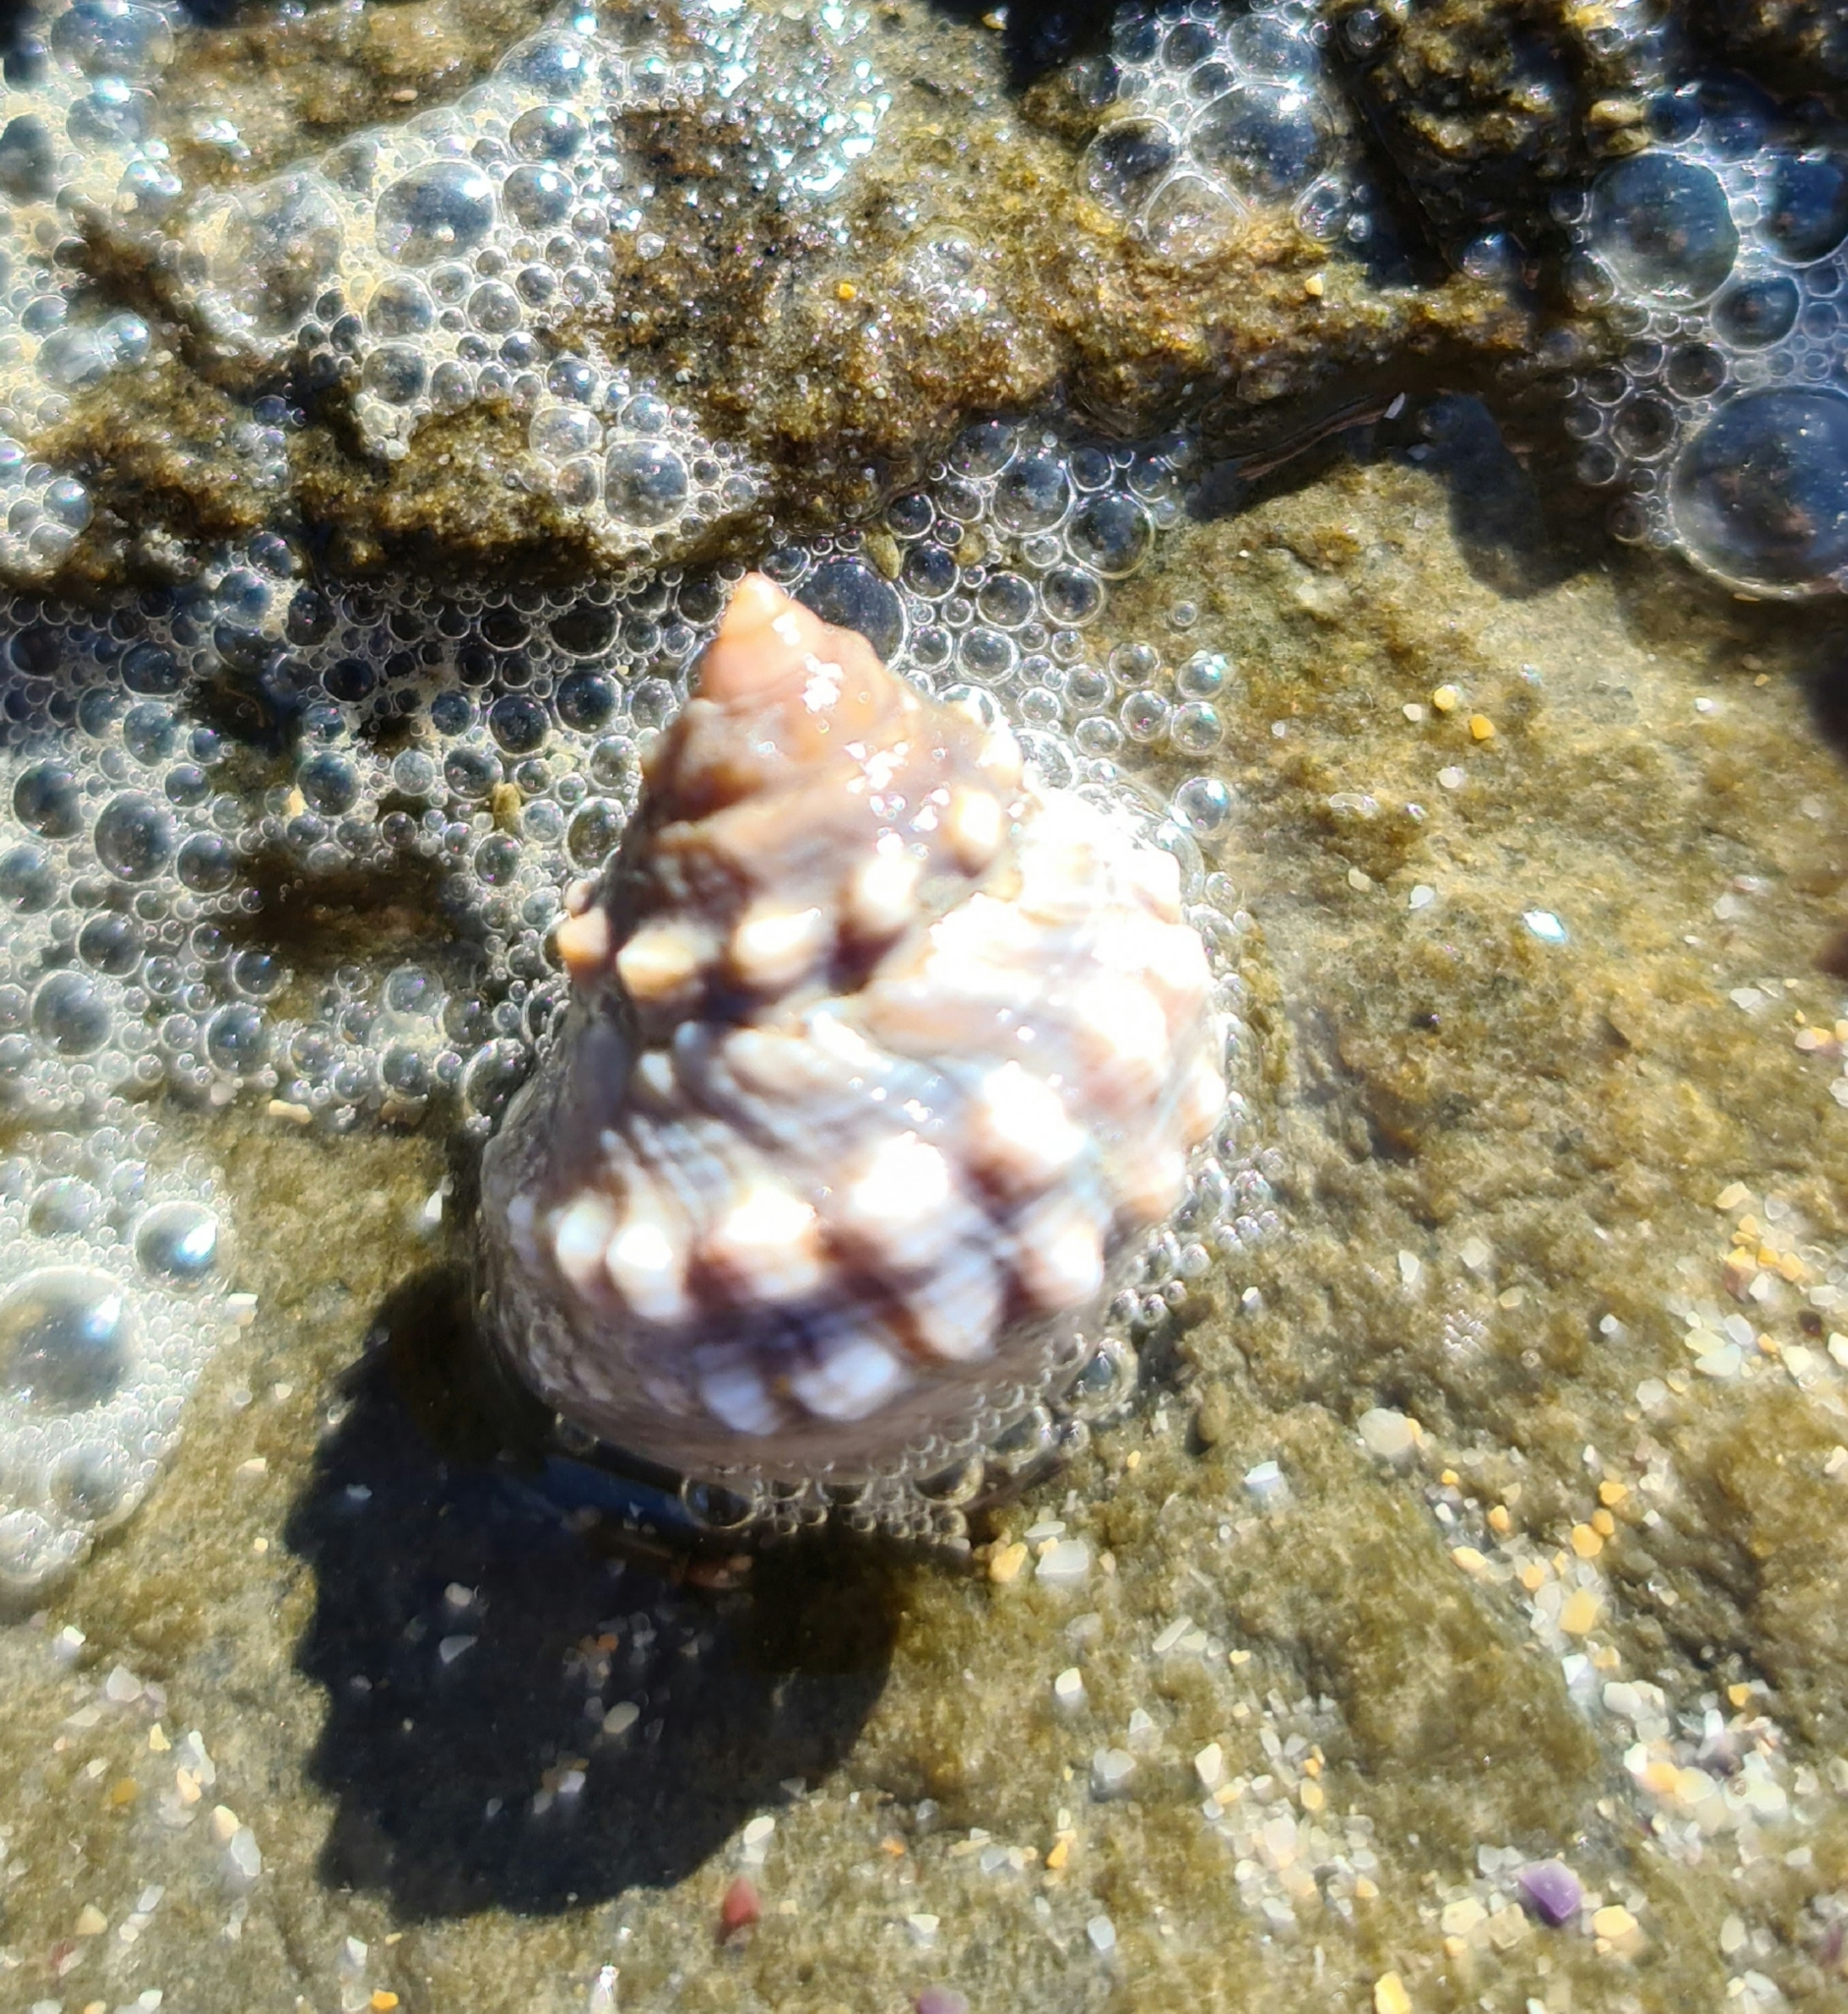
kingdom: Animalia
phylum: Mollusca
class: Gastropoda
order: Littorinimorpha
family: Littorinidae
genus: Nodilittorina
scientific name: Nodilittorina pyramidalis
